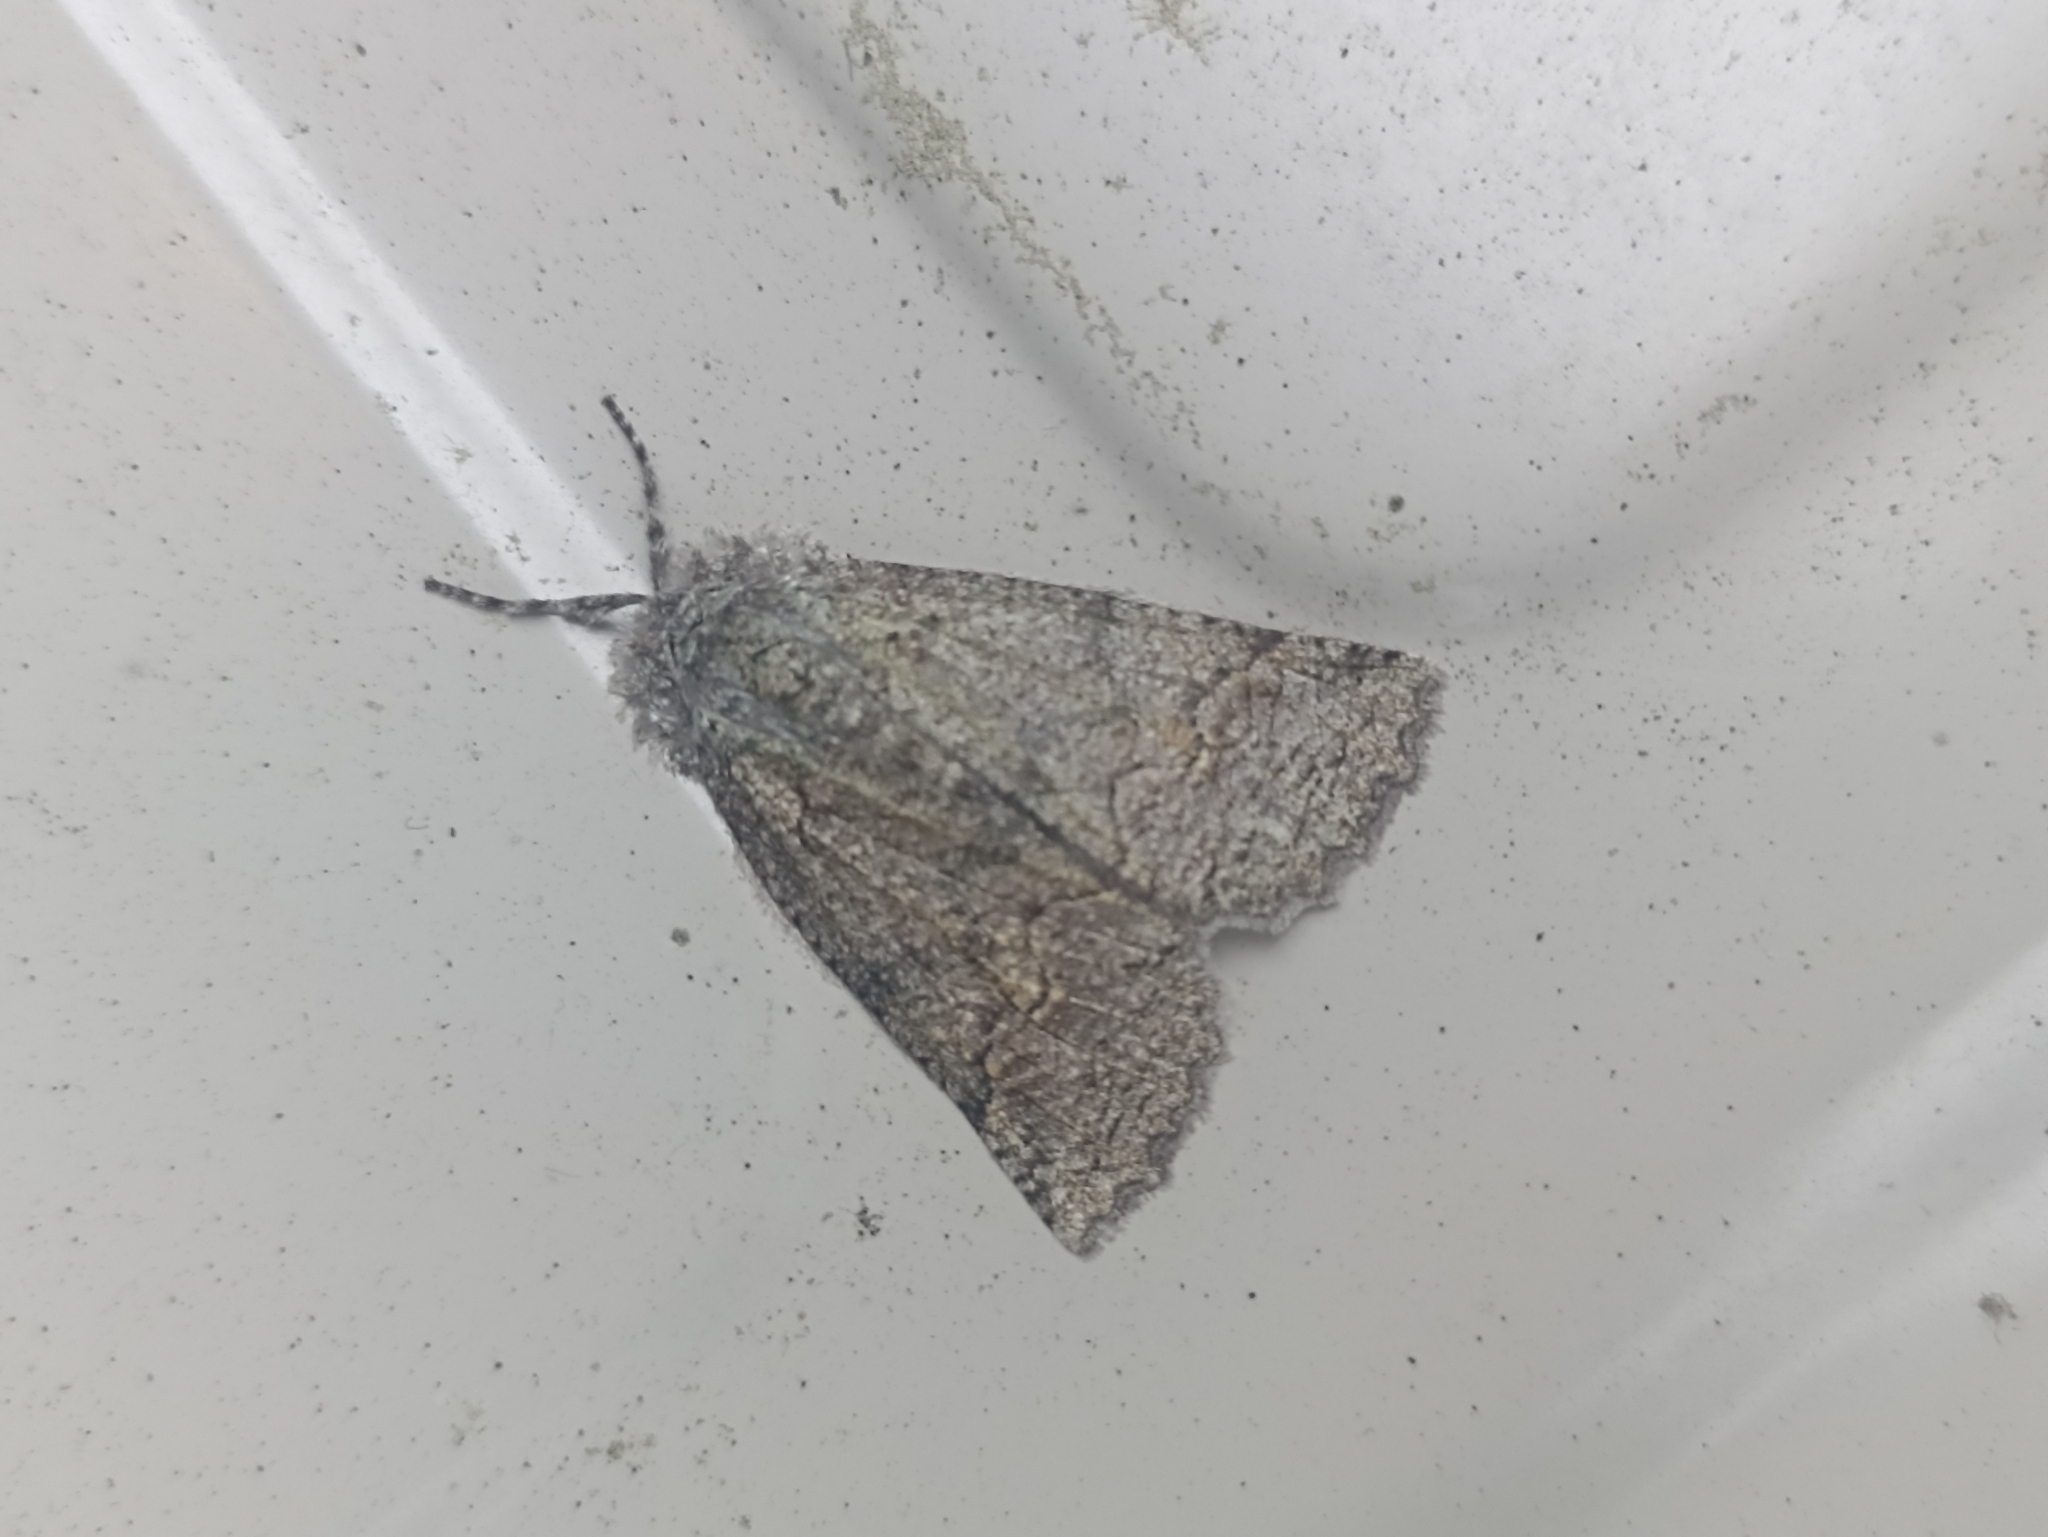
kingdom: Animalia
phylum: Arthropoda
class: Insecta
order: Lepidoptera
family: Geometridae
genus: Declana
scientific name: Declana floccosa
